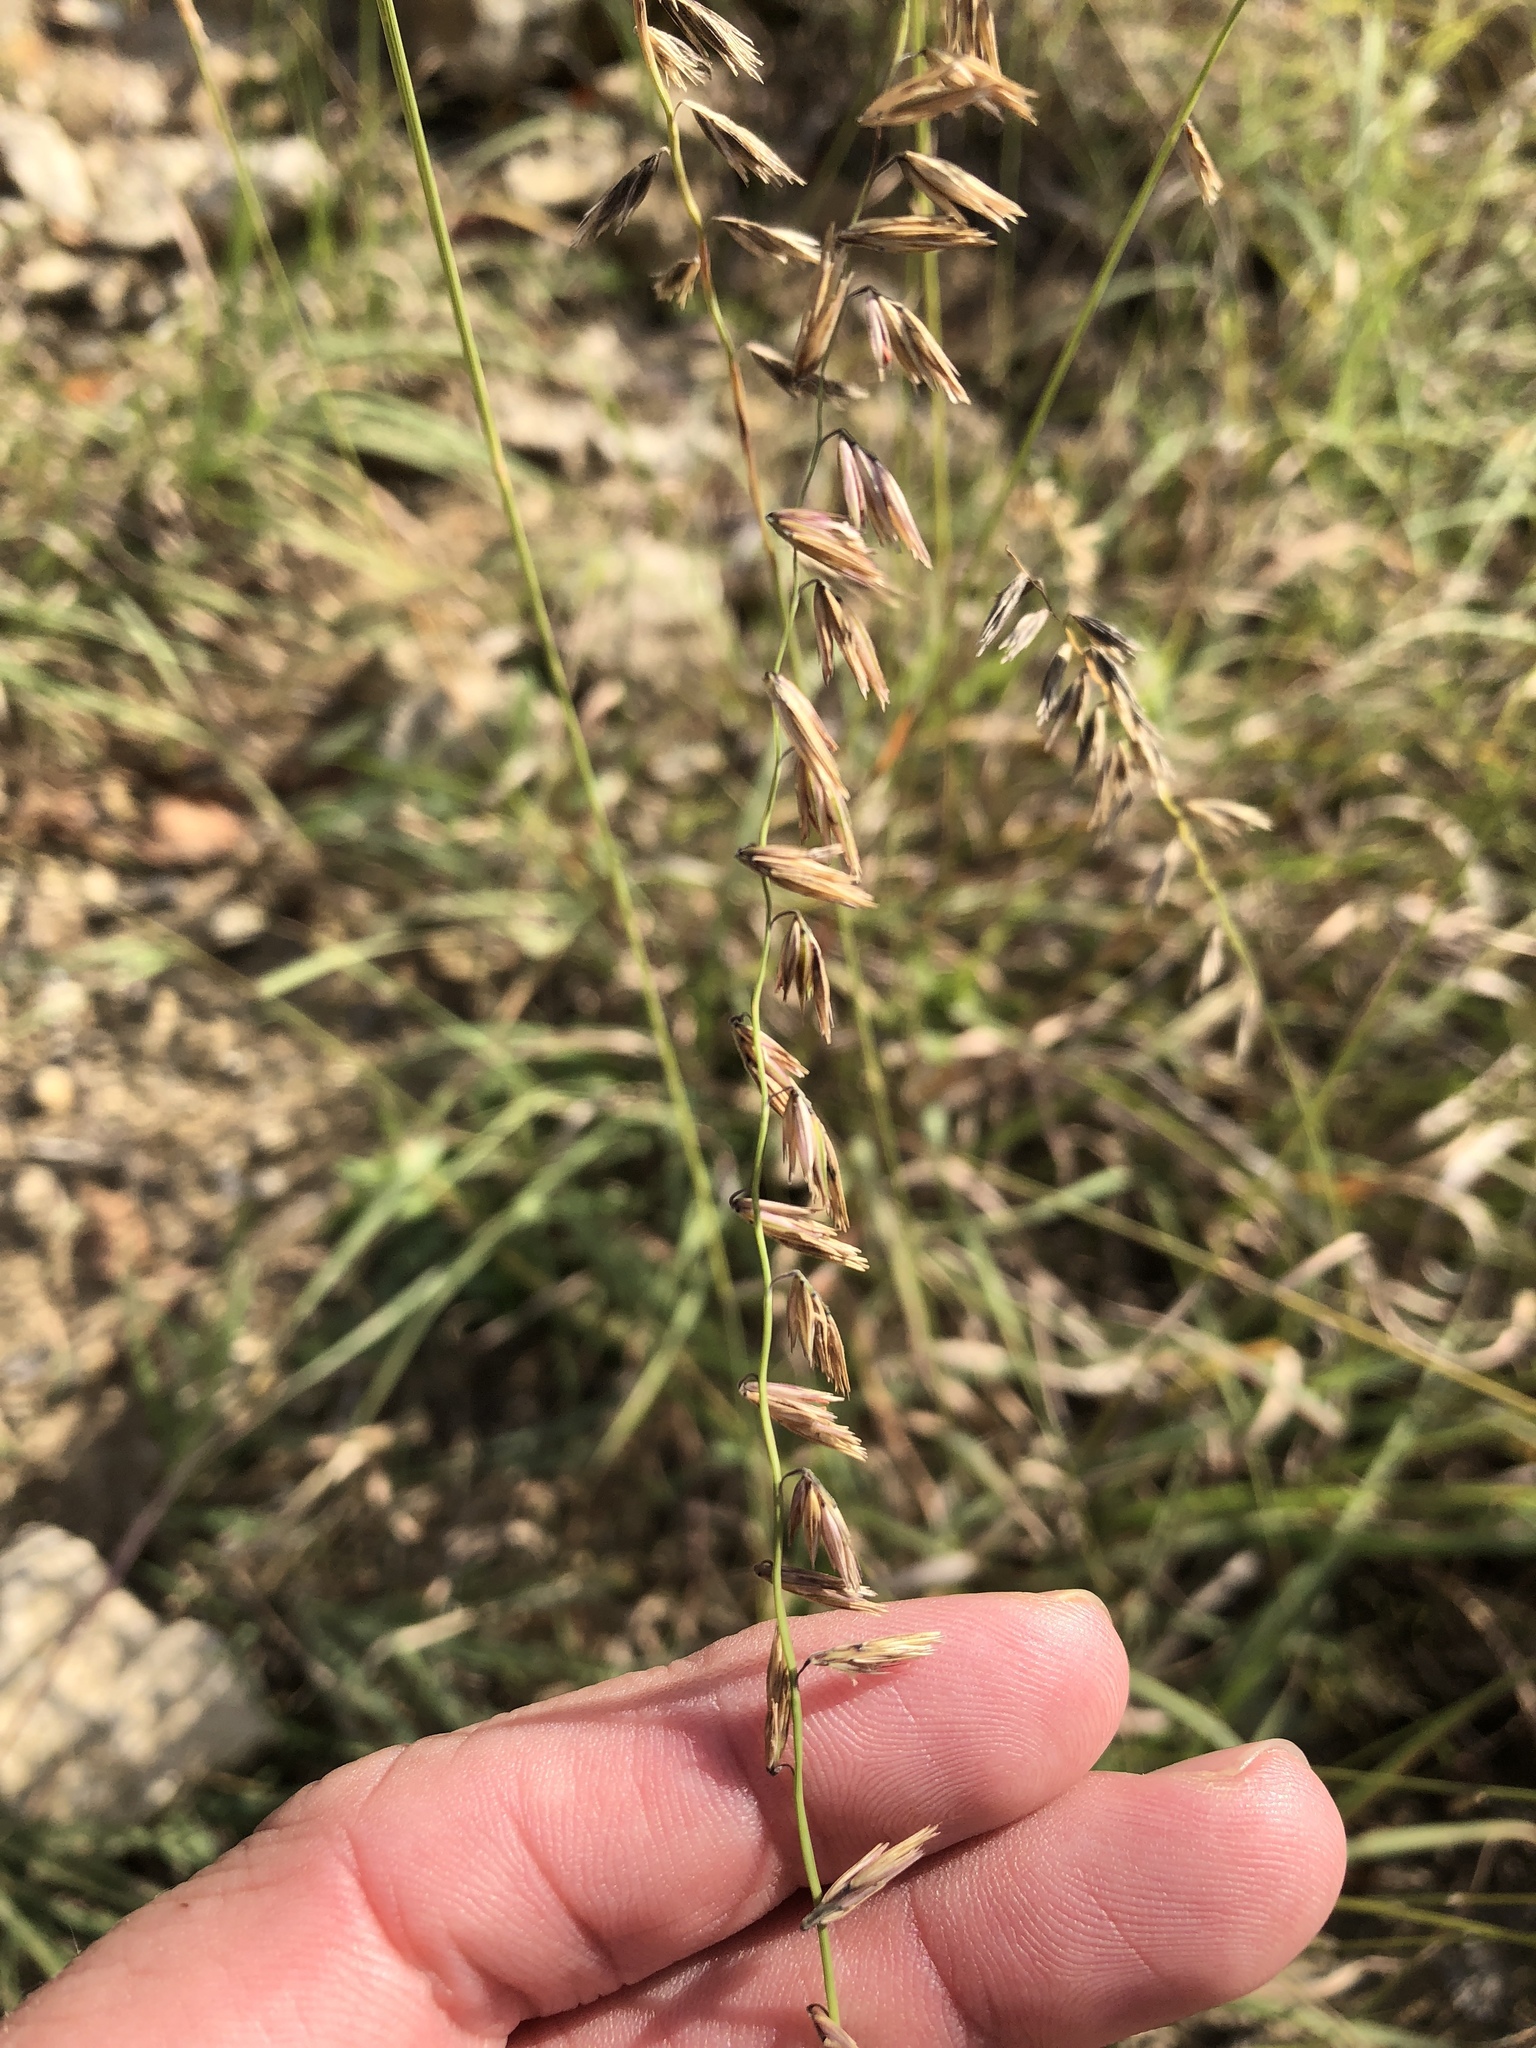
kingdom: Plantae
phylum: Tracheophyta
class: Liliopsida
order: Poales
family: Poaceae
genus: Bouteloua
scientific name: Bouteloua curtipendula
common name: Side-oats grama
